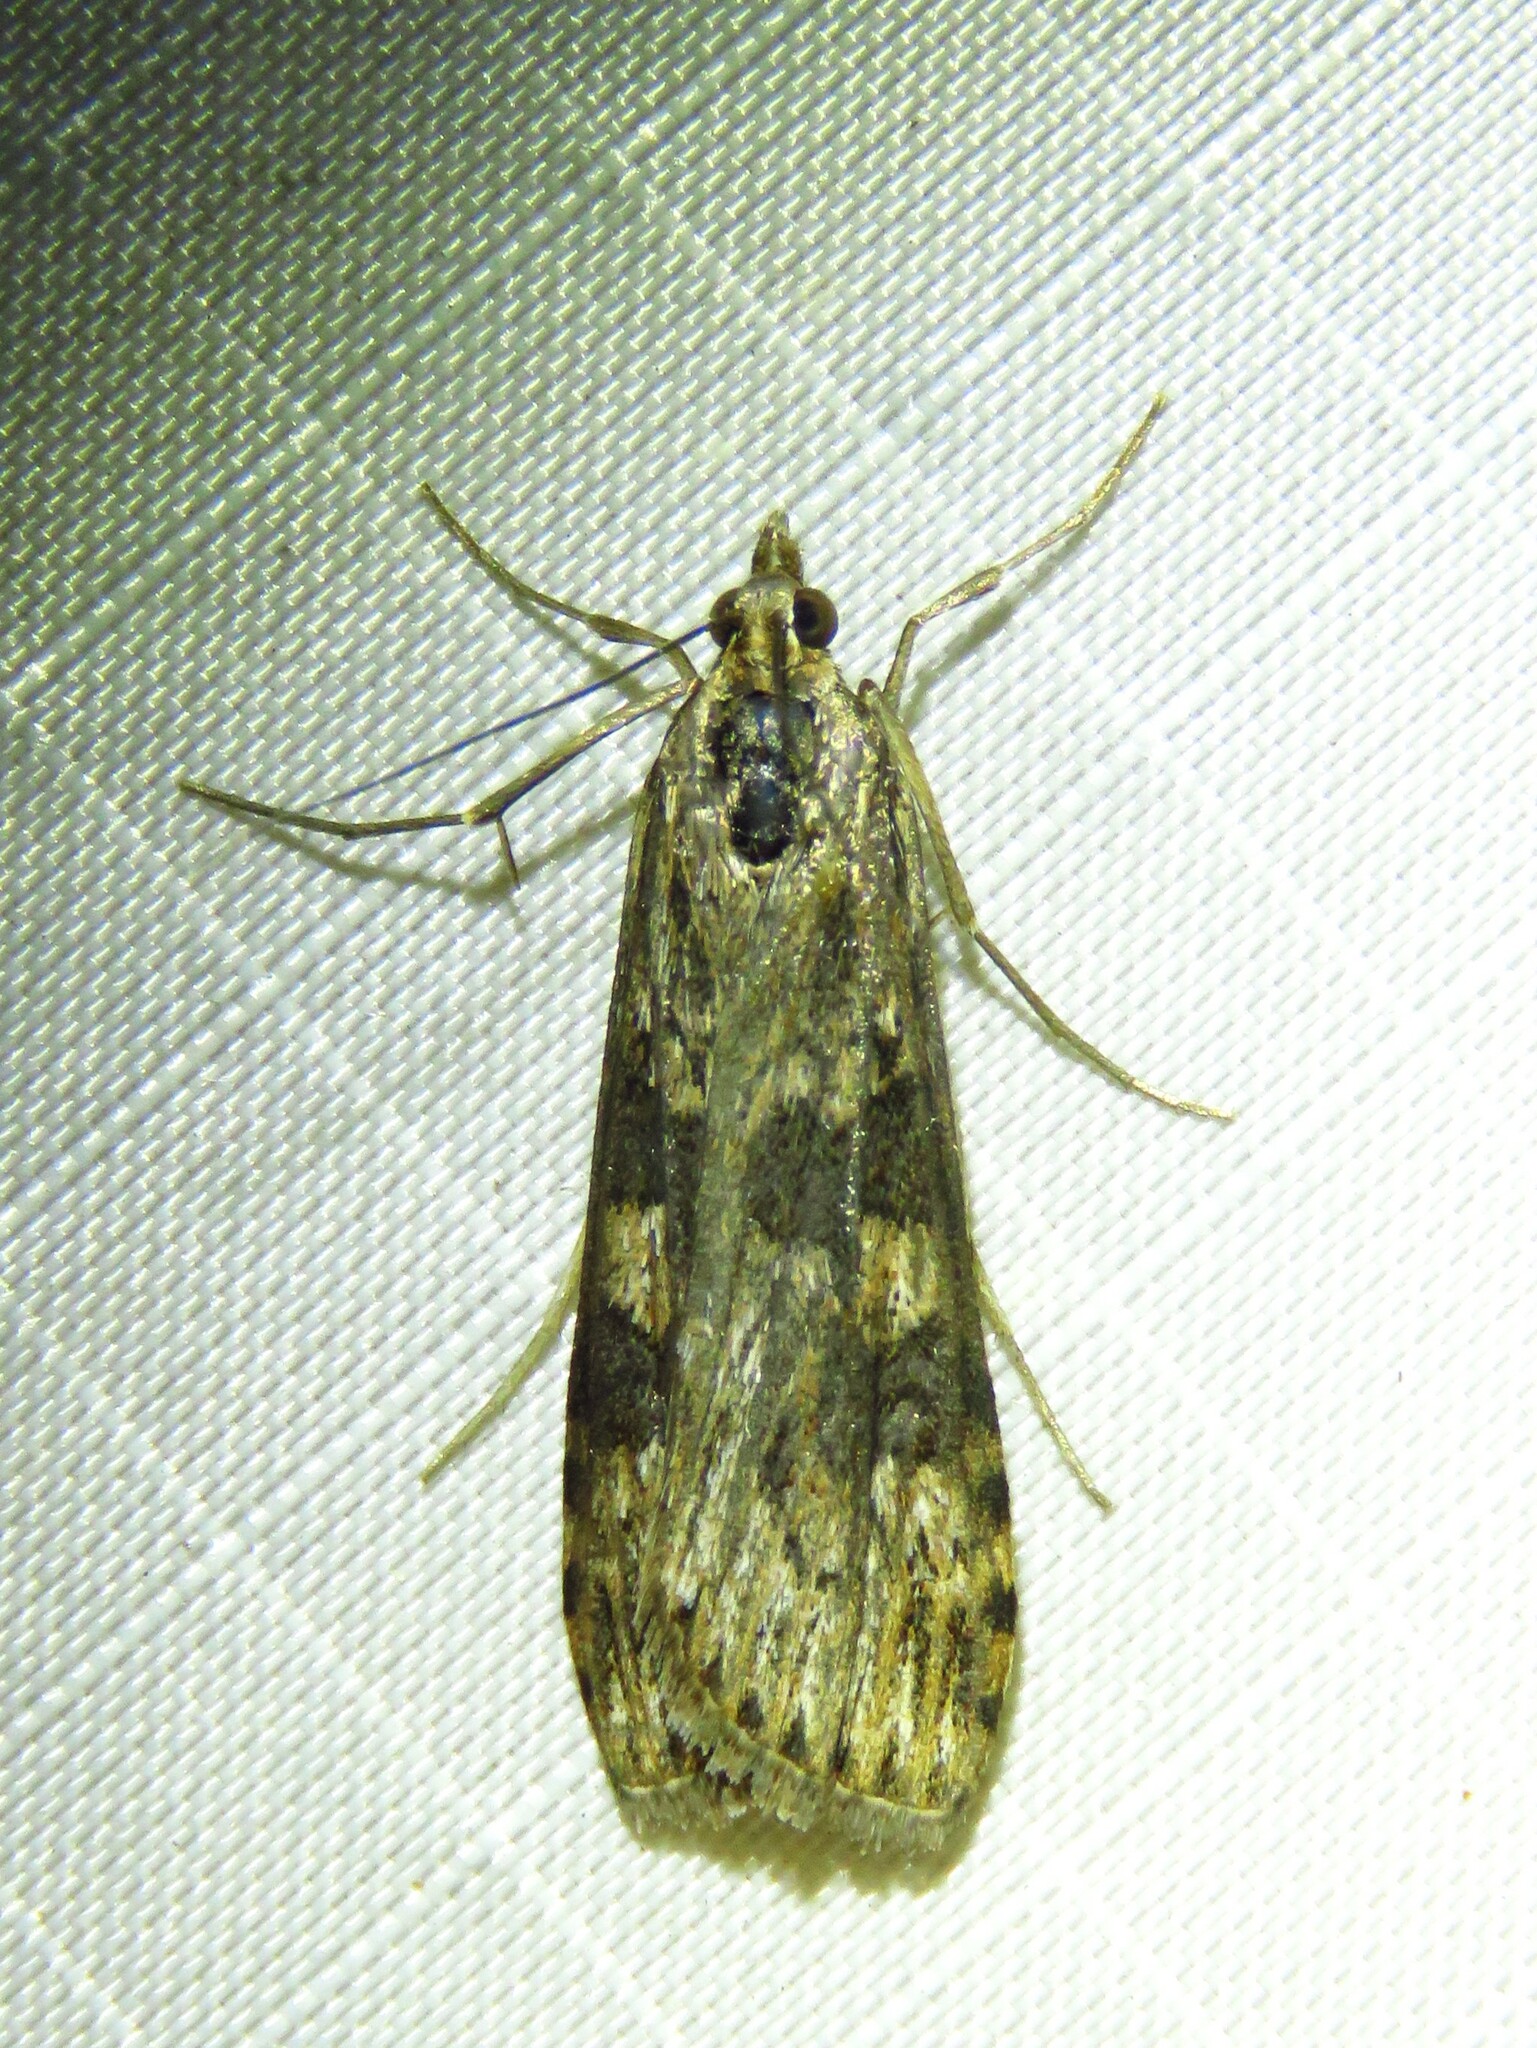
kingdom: Animalia
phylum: Arthropoda
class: Insecta
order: Lepidoptera
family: Crambidae
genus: Nomophila
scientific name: Nomophila nearctica
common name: American rush veneer
